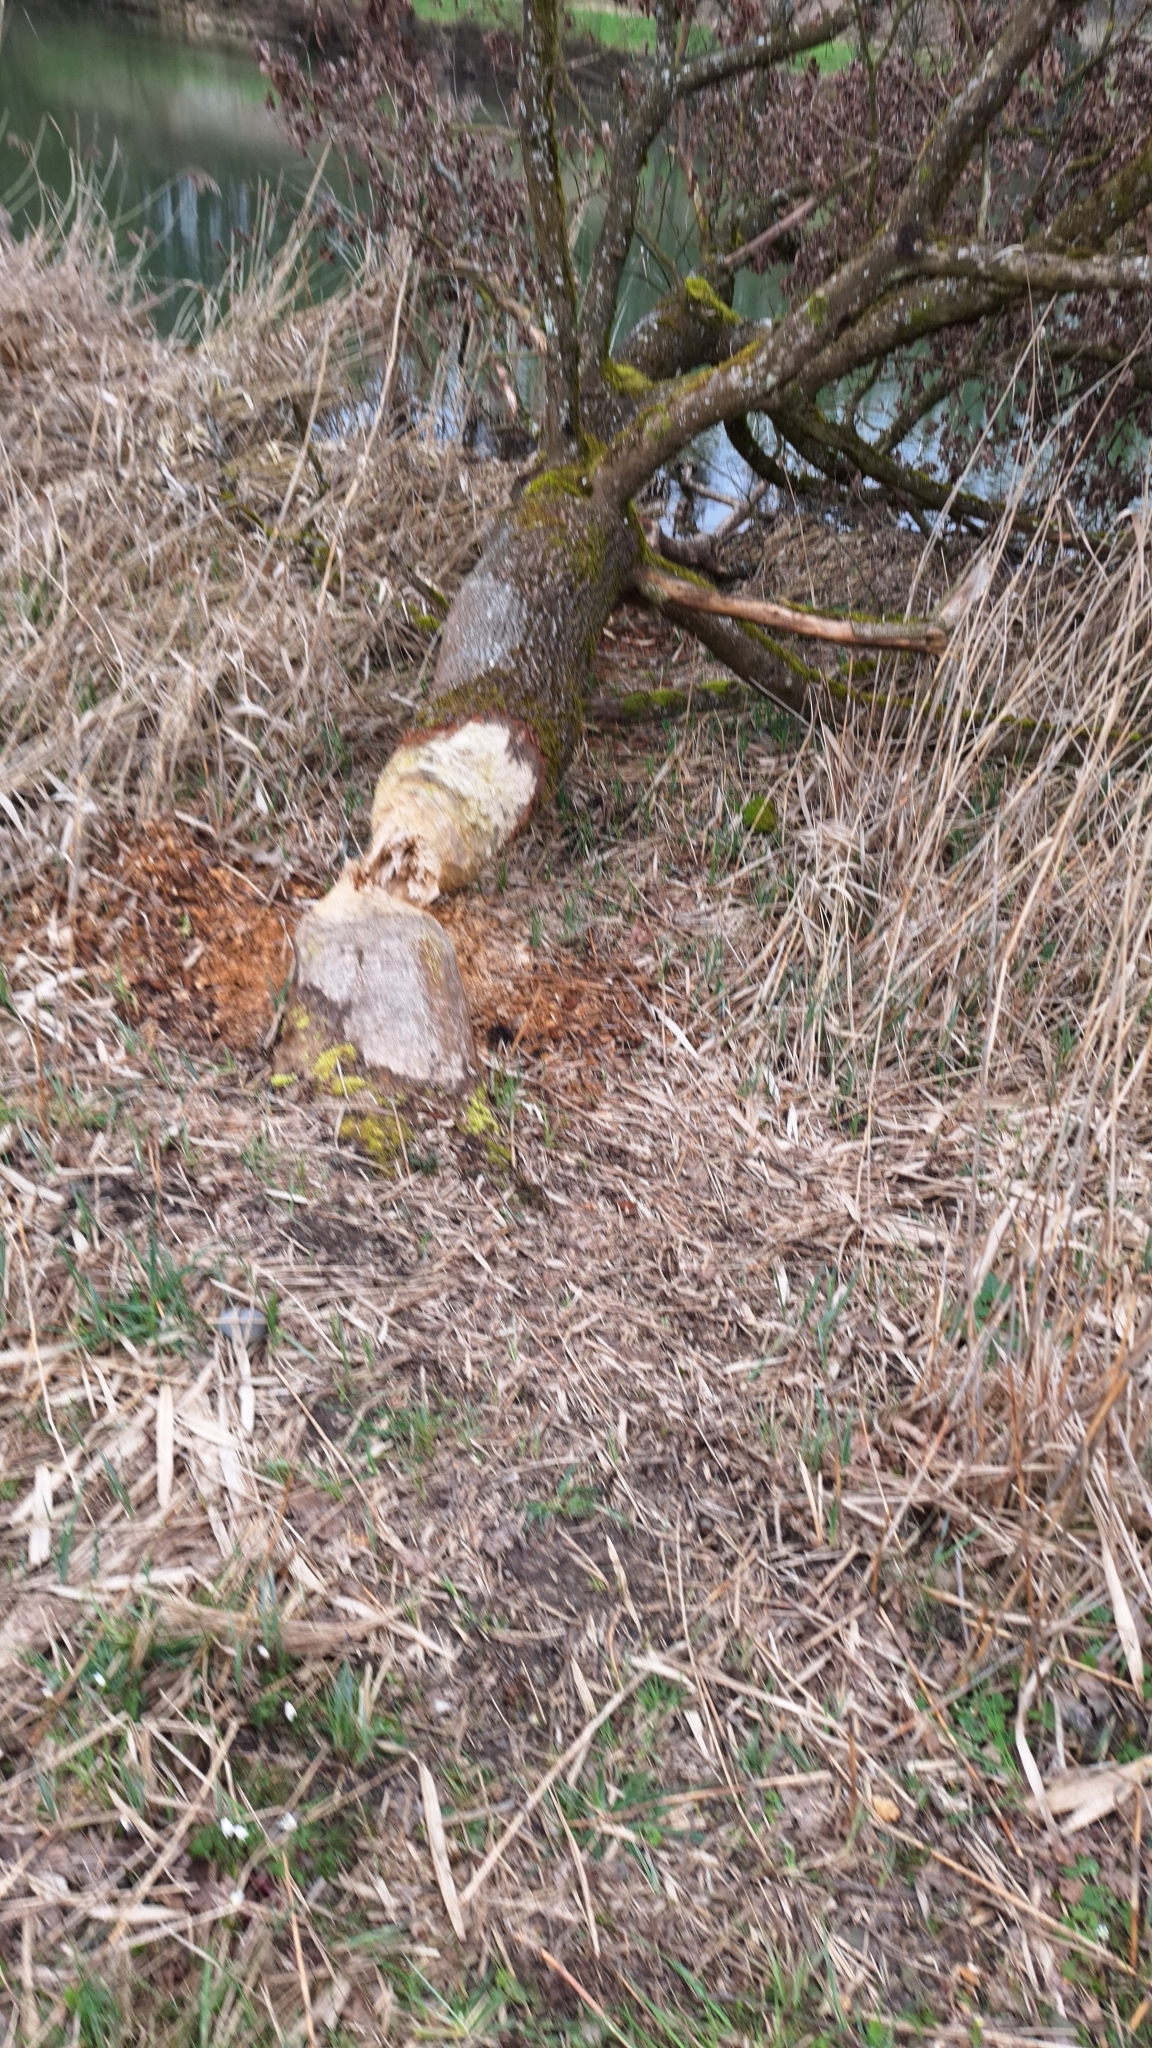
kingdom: Animalia
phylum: Chordata
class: Mammalia
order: Rodentia
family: Castoridae
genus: Castor
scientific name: Castor fiber
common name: Eurasian beaver
